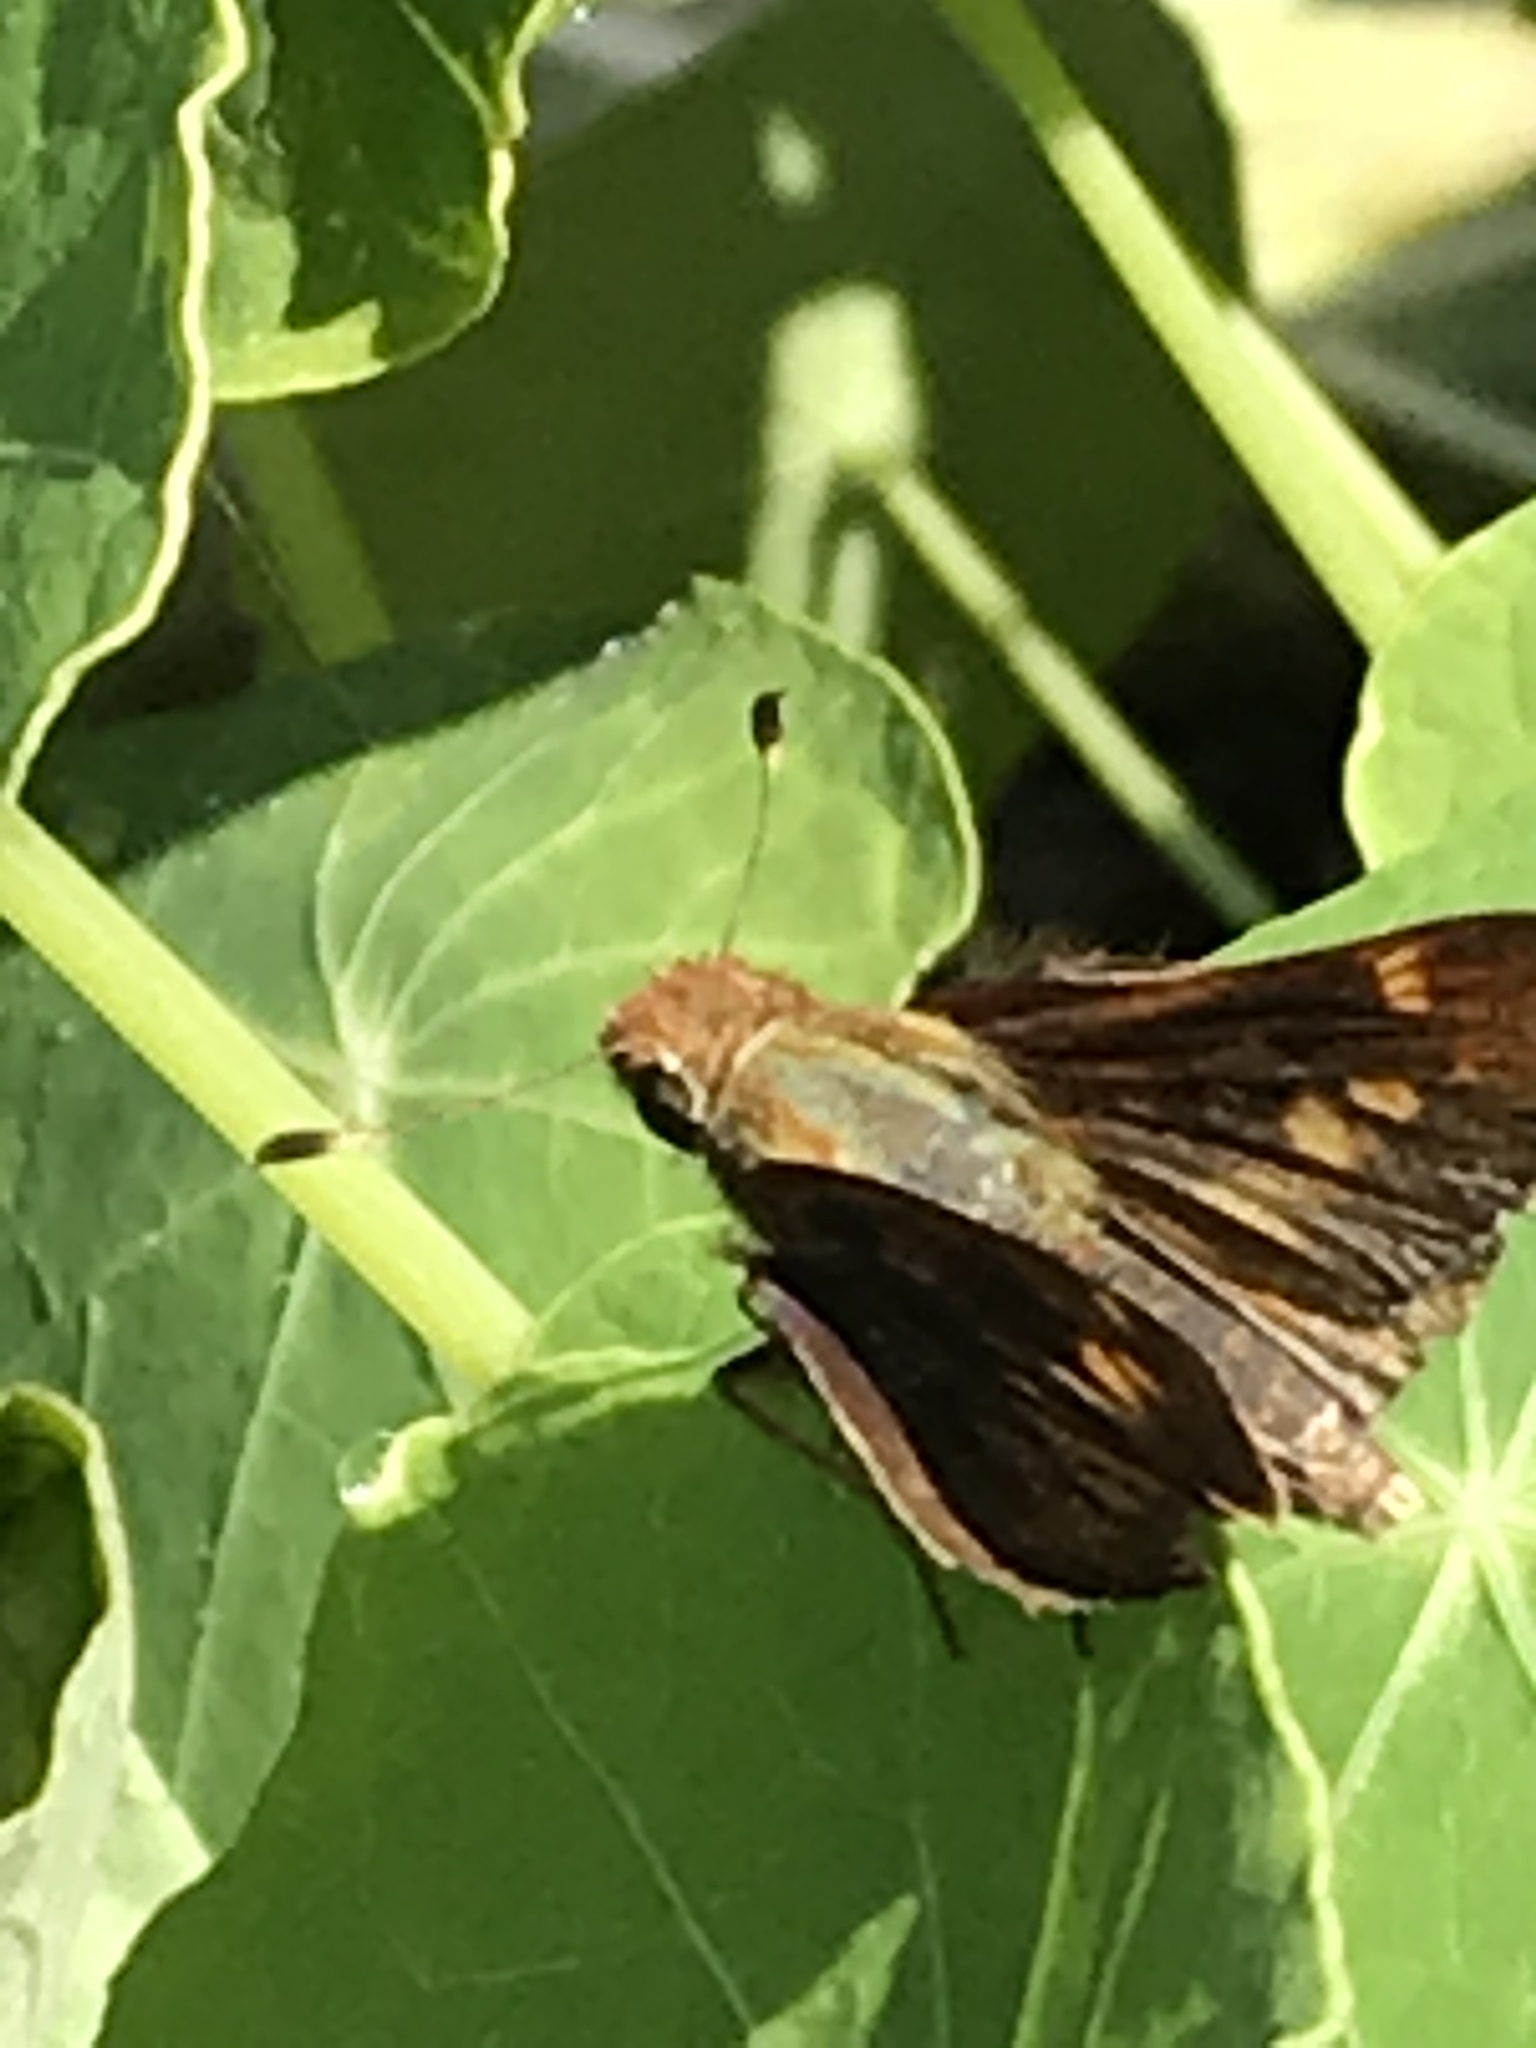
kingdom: Animalia
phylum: Arthropoda
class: Insecta
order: Lepidoptera
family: Hesperiidae
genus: Lon
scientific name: Lon melane
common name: Umber skipper
